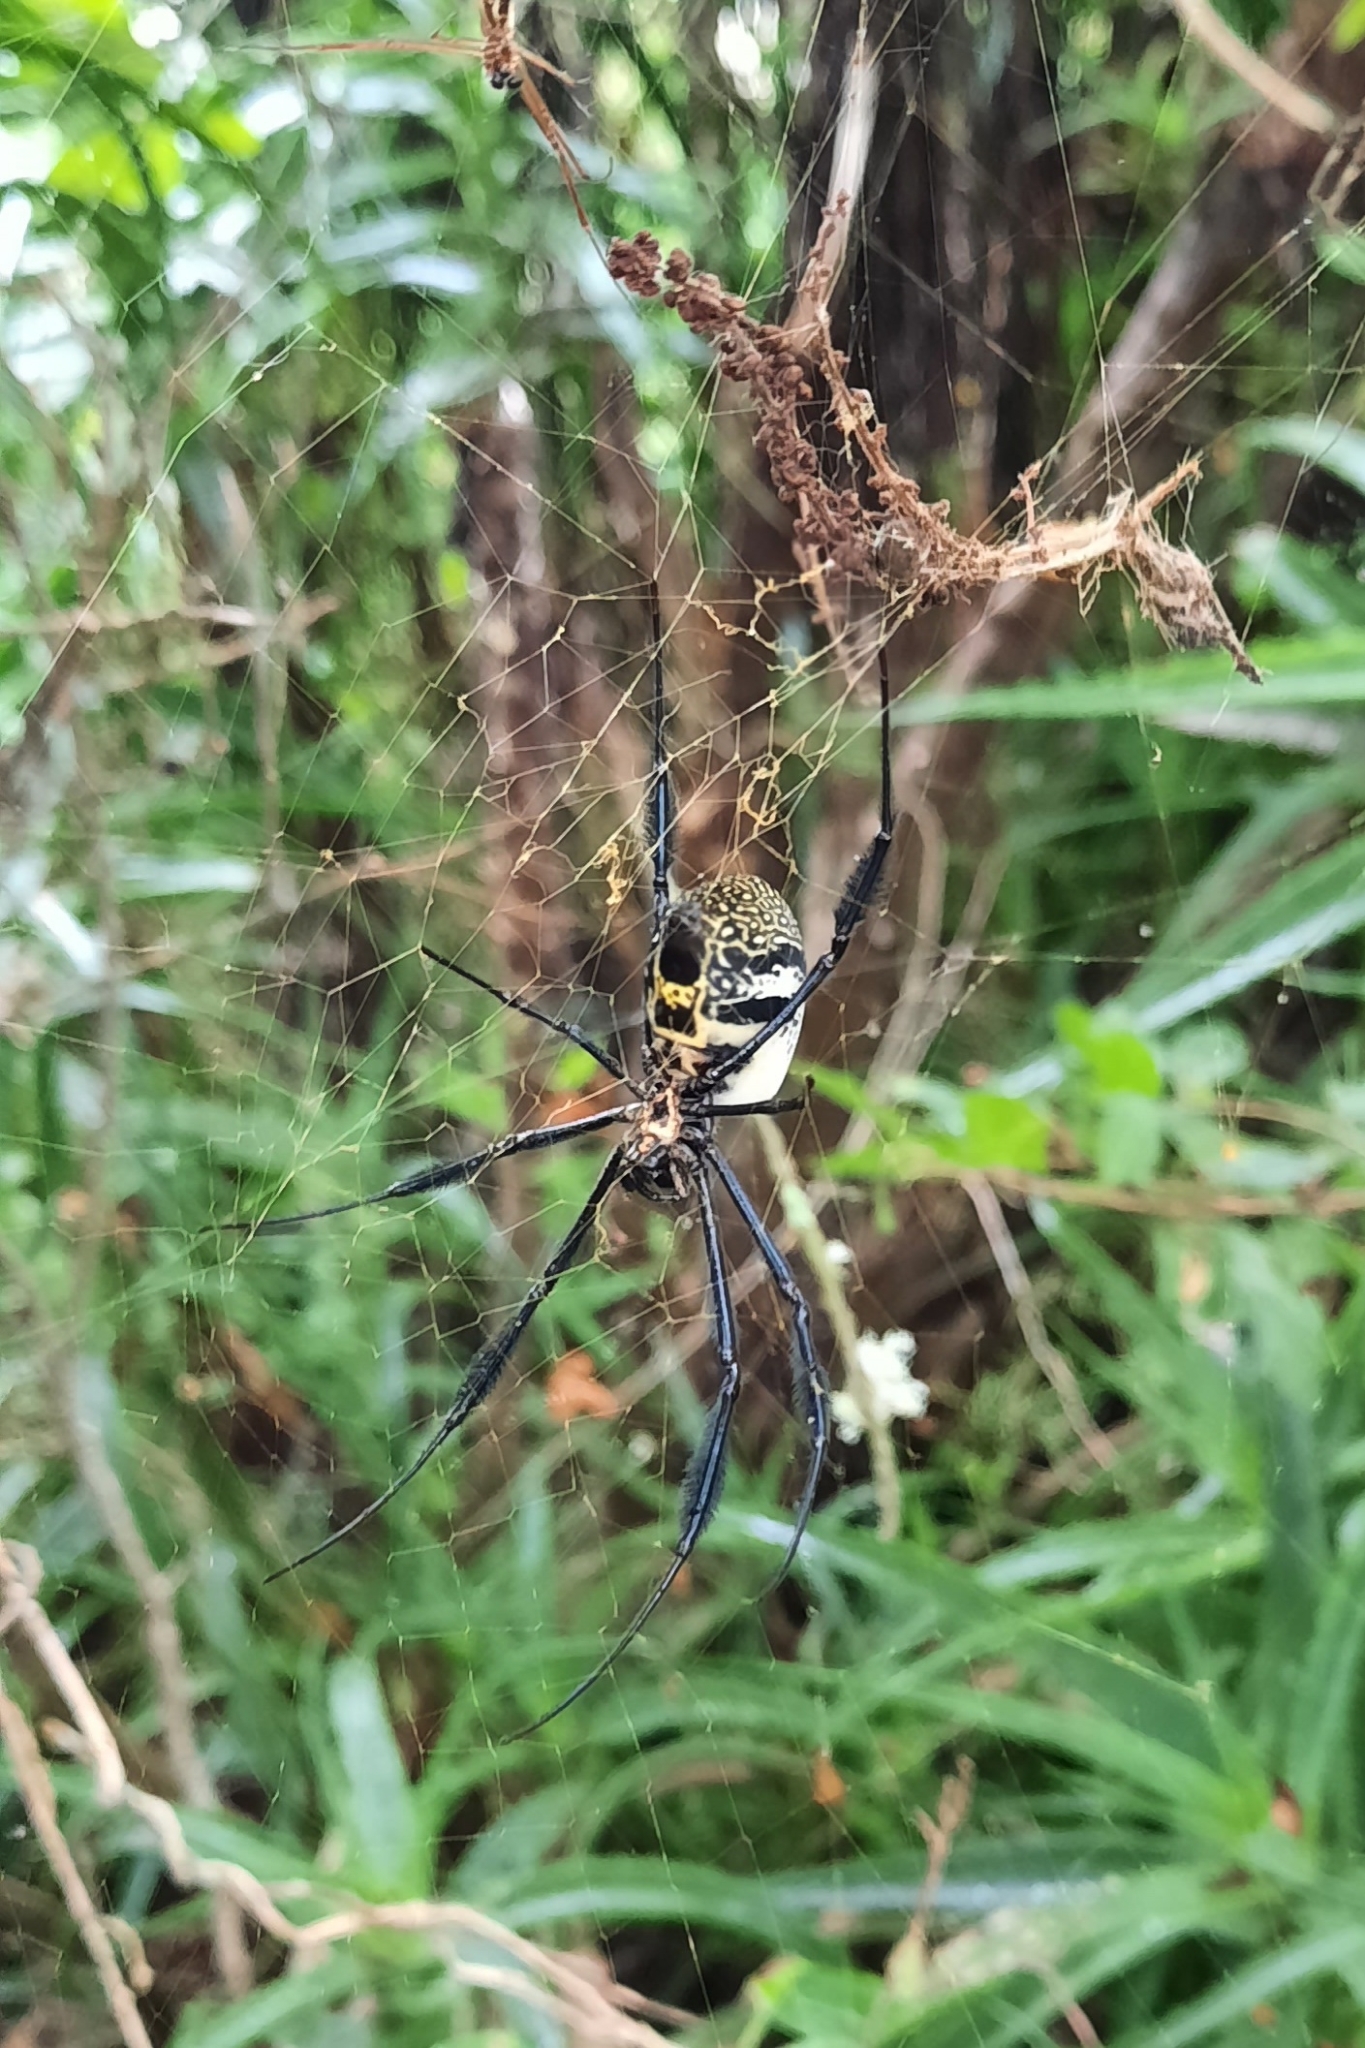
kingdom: Animalia
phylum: Arthropoda
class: Arachnida
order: Araneae
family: Araneidae
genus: Trichonephila
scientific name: Trichonephila fenestrata
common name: Hairy golden orb weaver
